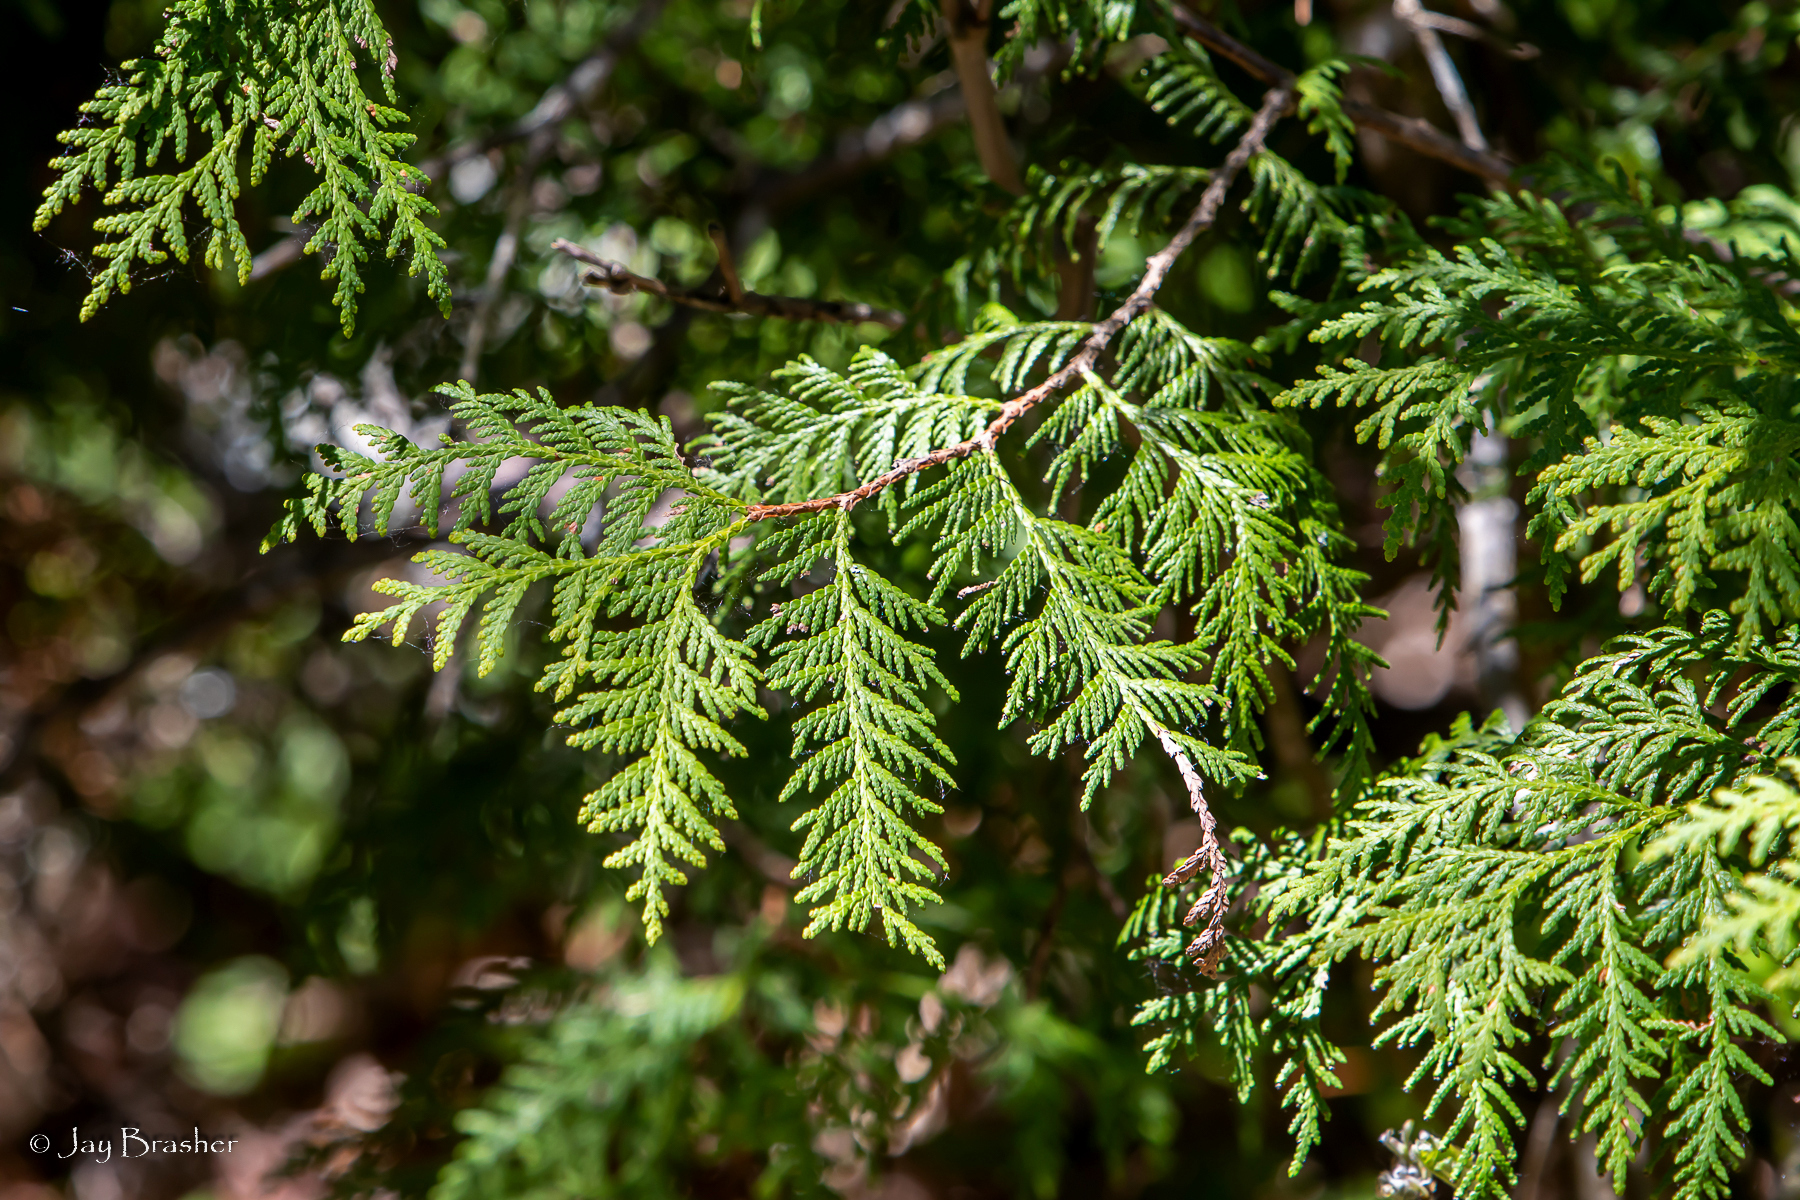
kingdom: Plantae
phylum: Tracheophyta
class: Pinopsida
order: Pinales
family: Cupressaceae
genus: Thuja
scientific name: Thuja occidentalis
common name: Northern white-cedar
